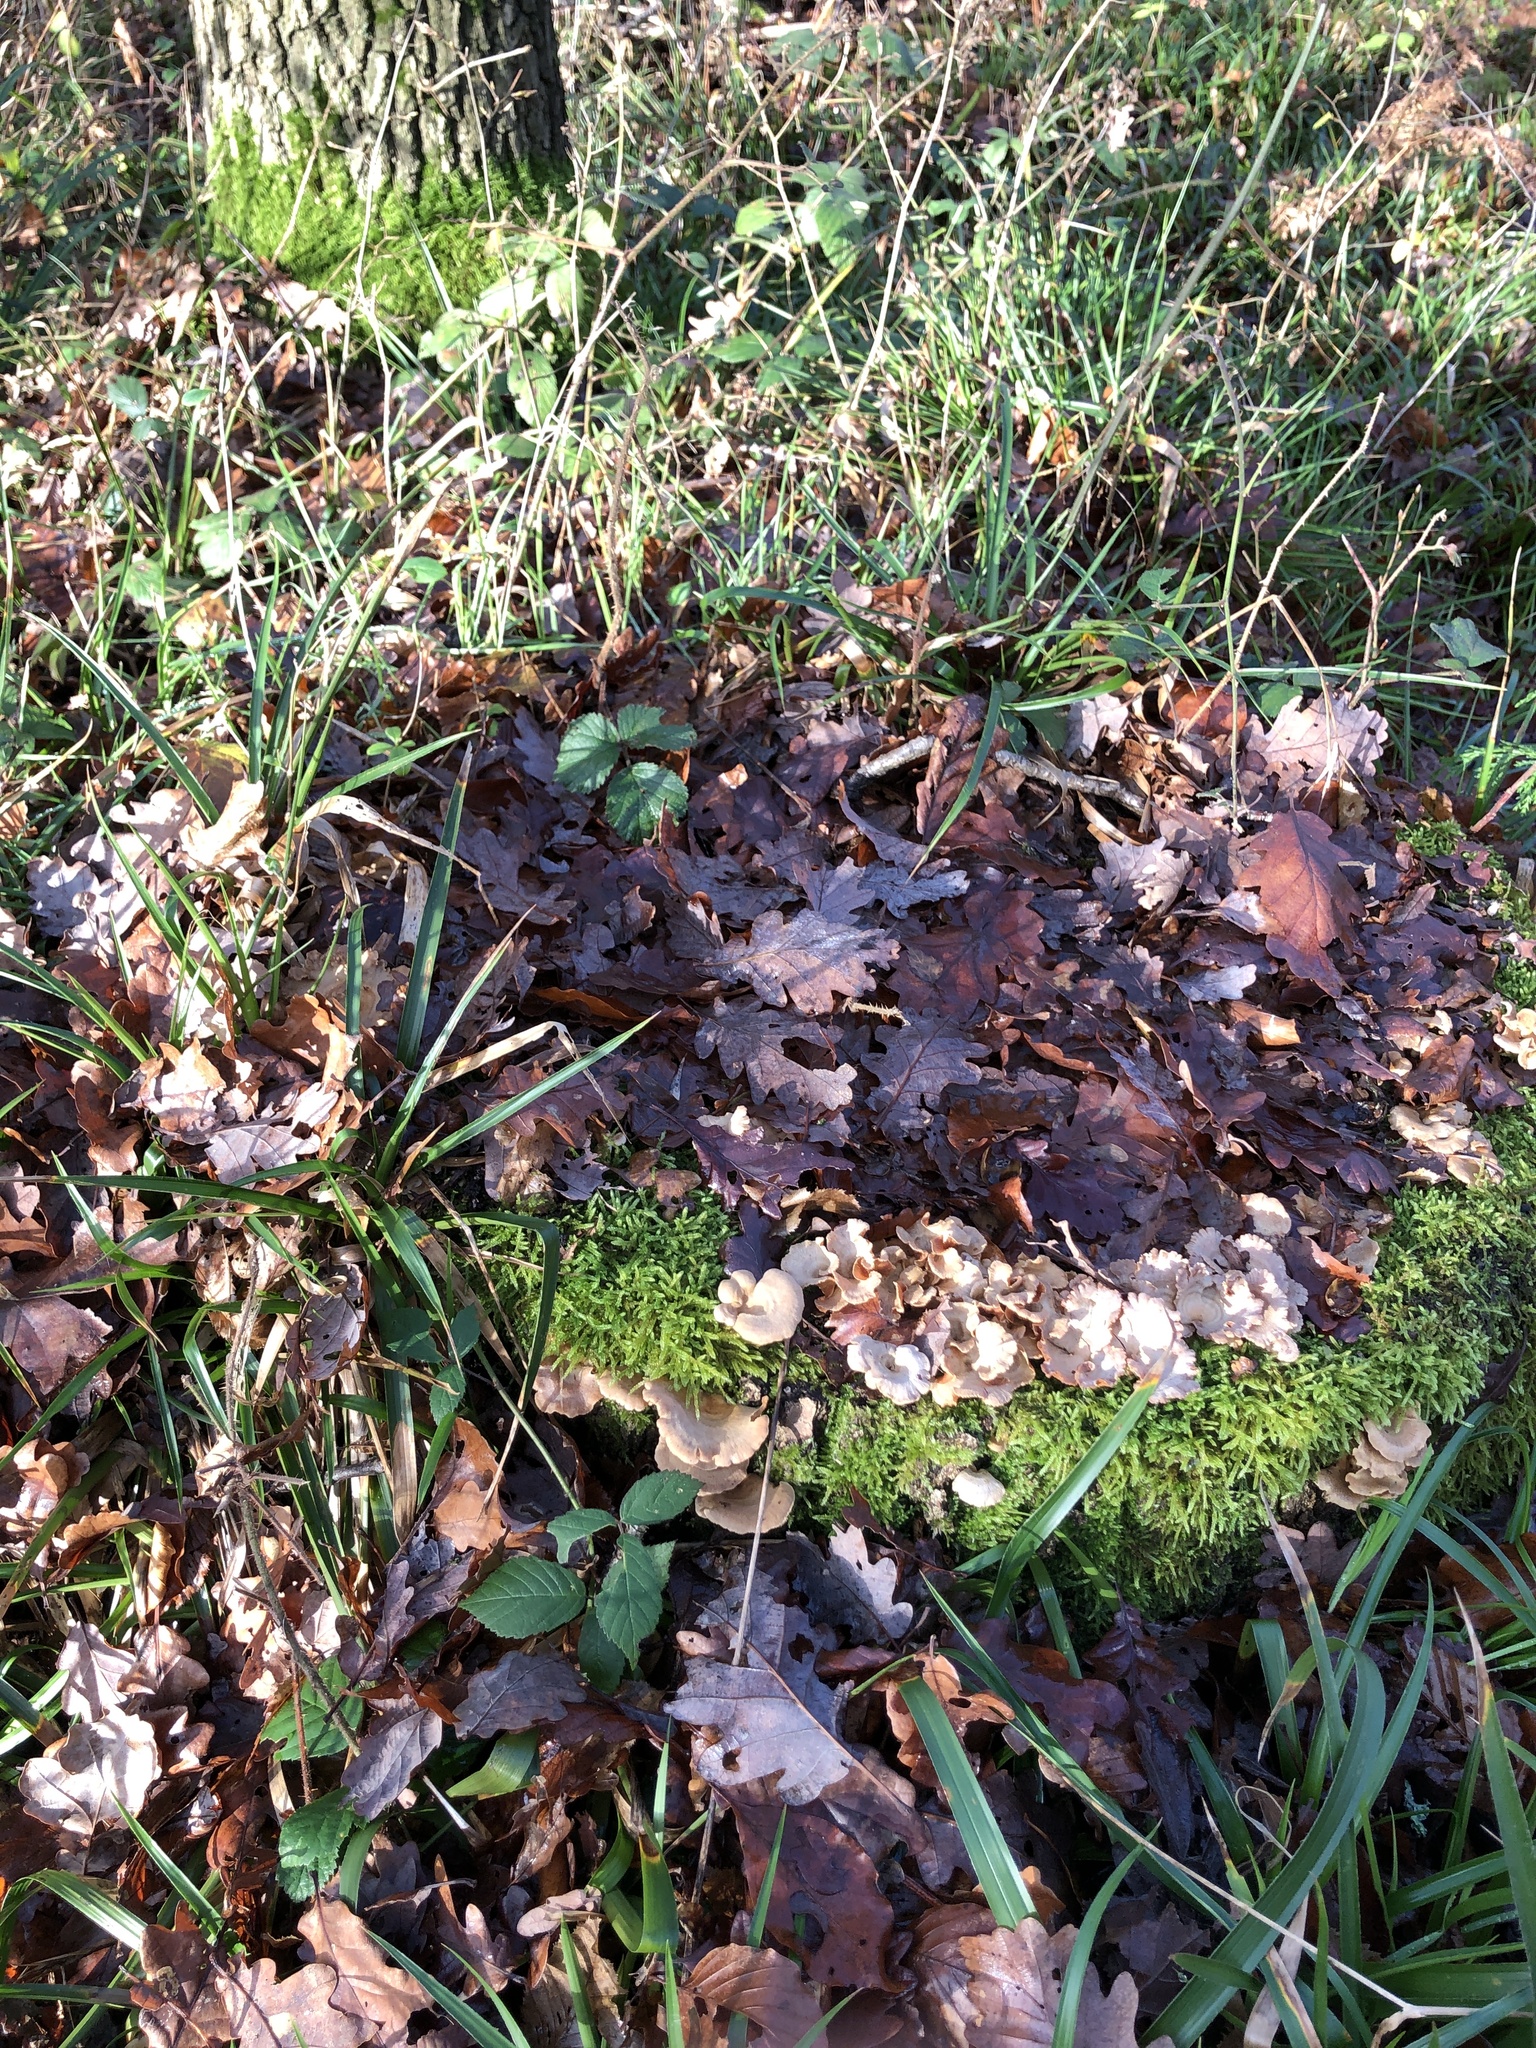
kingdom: Plantae
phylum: Bryophyta
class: Bryopsida
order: Hypnales
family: Hypnaceae
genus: Hypnum
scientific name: Hypnum cupressiforme
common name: Cypress-leaved plait-moss
